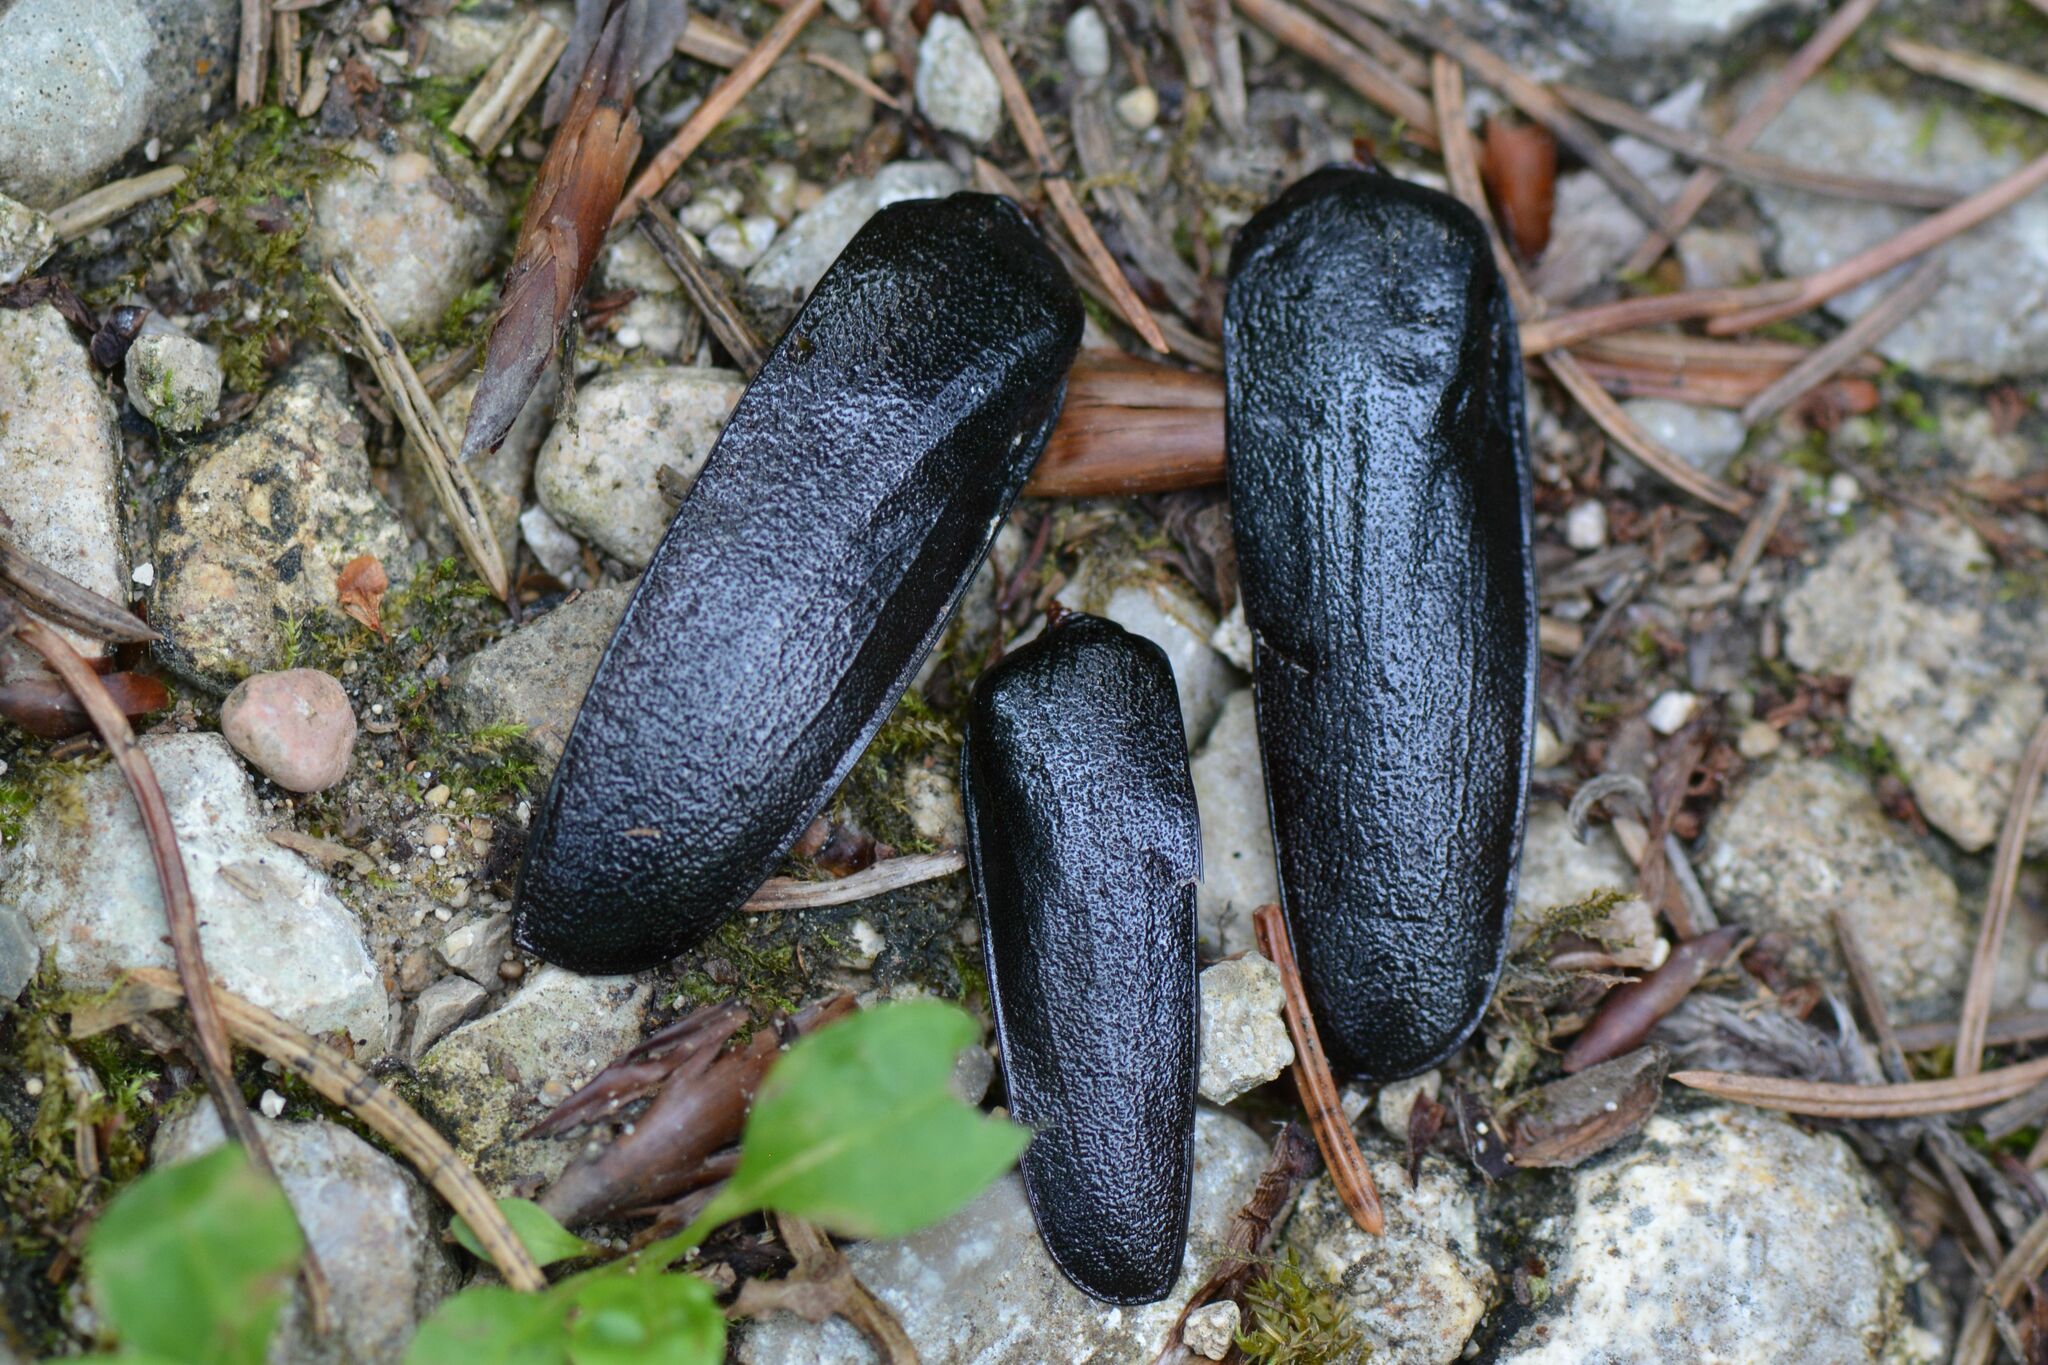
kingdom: Animalia
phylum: Arthropoda
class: Insecta
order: Coleoptera
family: Cerambycidae
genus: Prionus
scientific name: Prionus coriarius
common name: Tanner beetle
